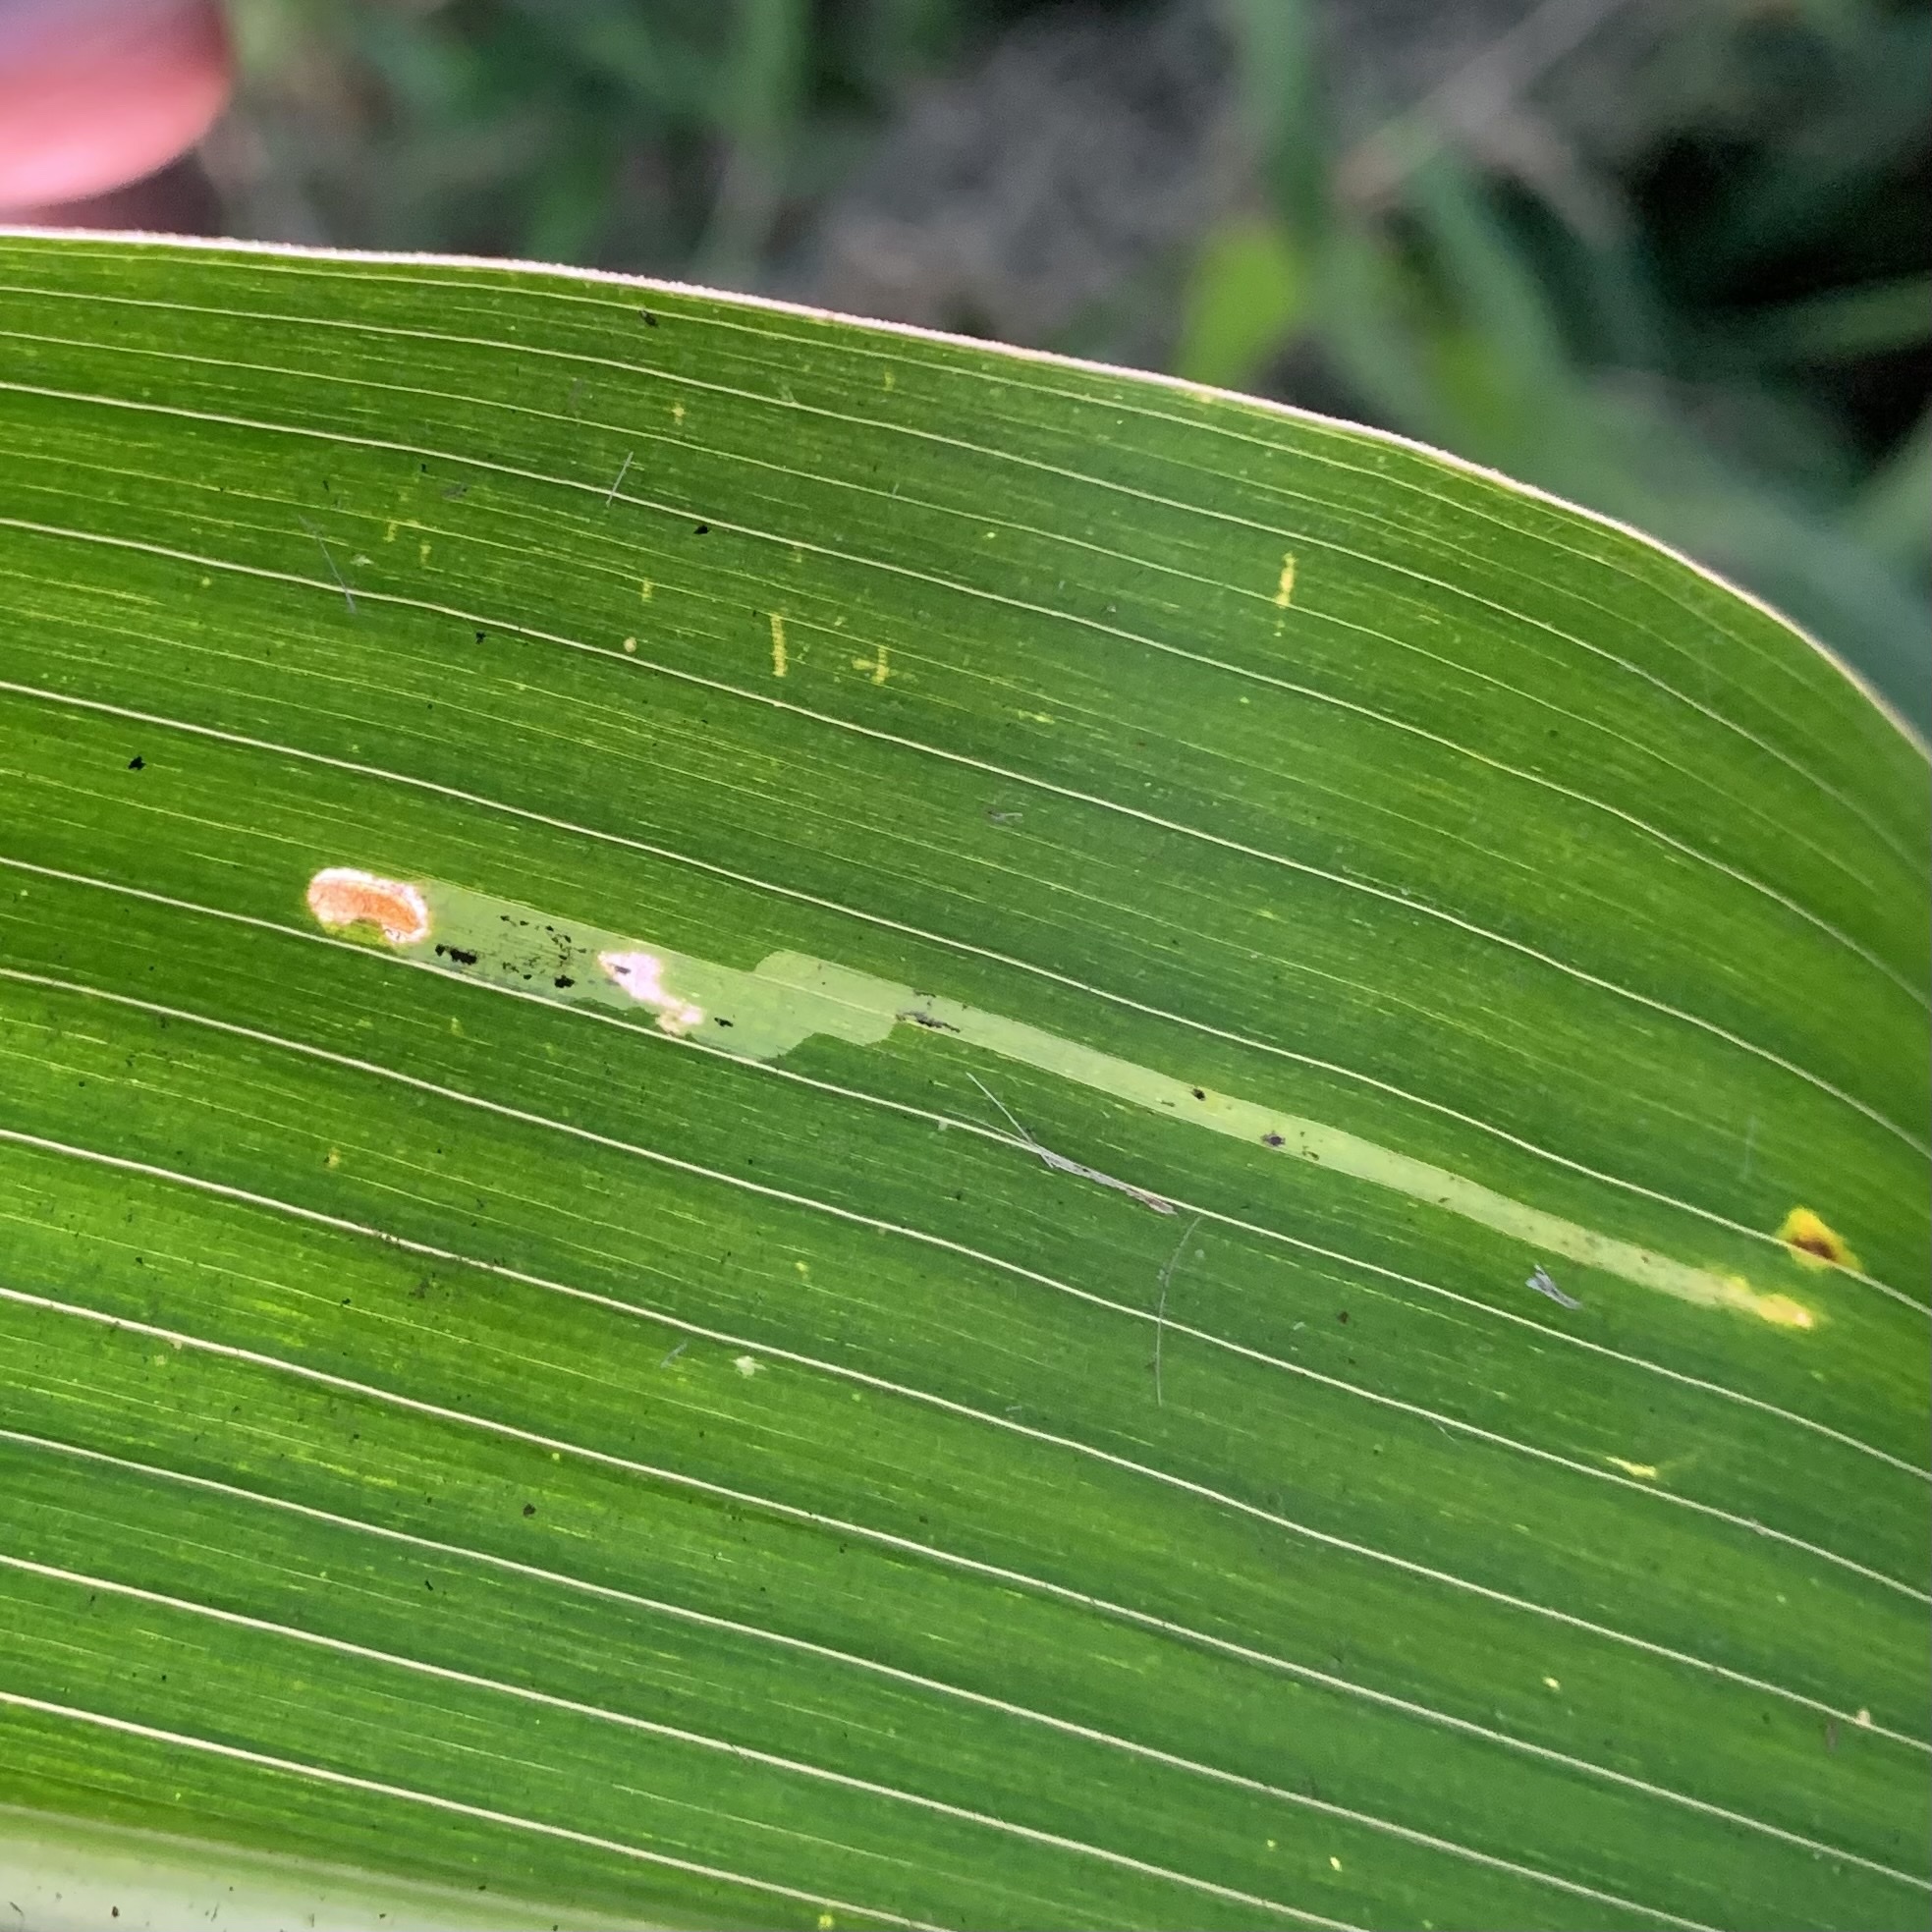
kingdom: Animalia
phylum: Arthropoda
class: Insecta
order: Diptera
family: Agromyzidae
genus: Agromyza
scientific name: Agromyza parvicornis
